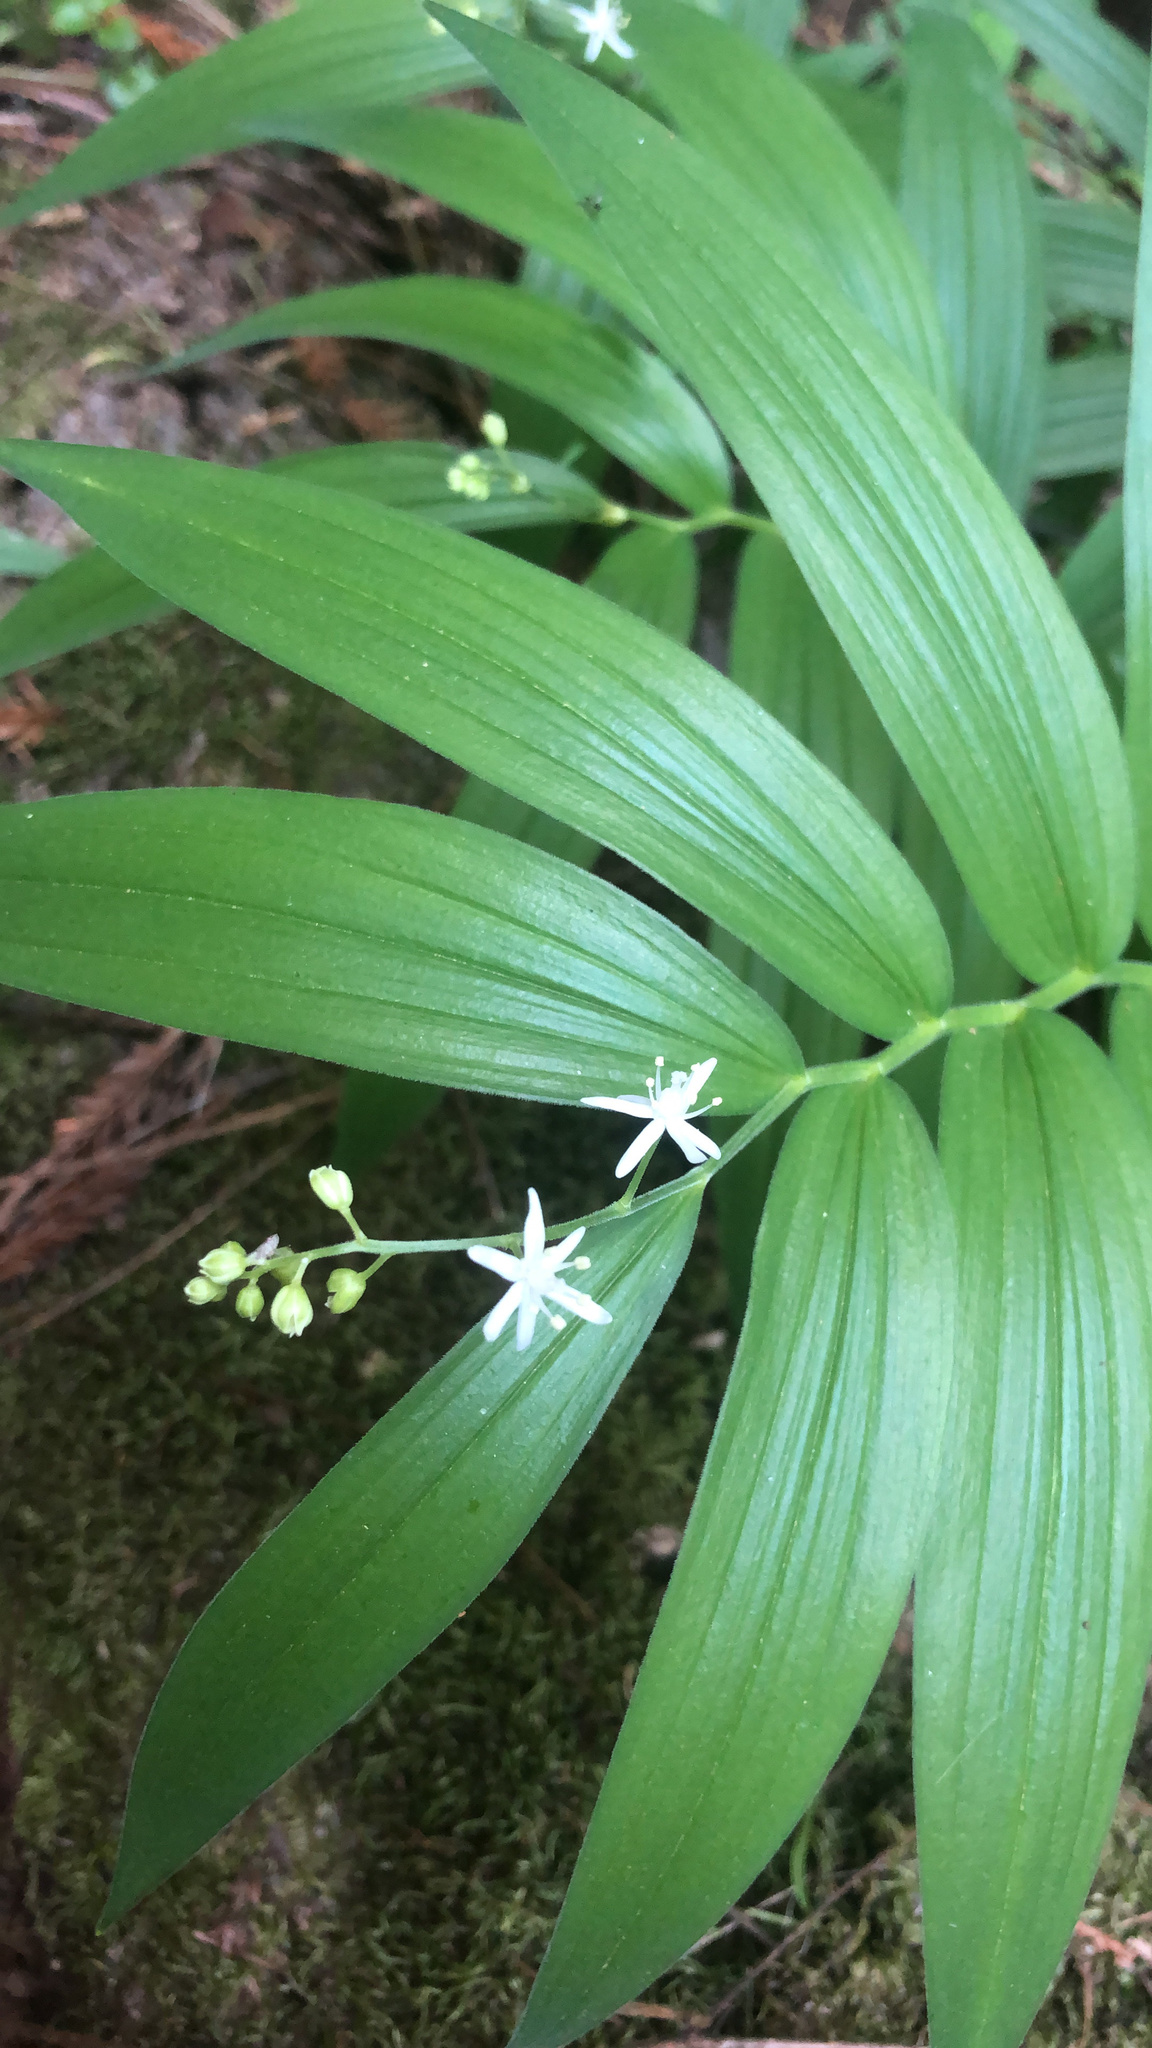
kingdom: Plantae
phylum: Tracheophyta
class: Liliopsida
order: Asparagales
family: Asparagaceae
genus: Maianthemum
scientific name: Maianthemum stellatum
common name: Little false solomon's seal
